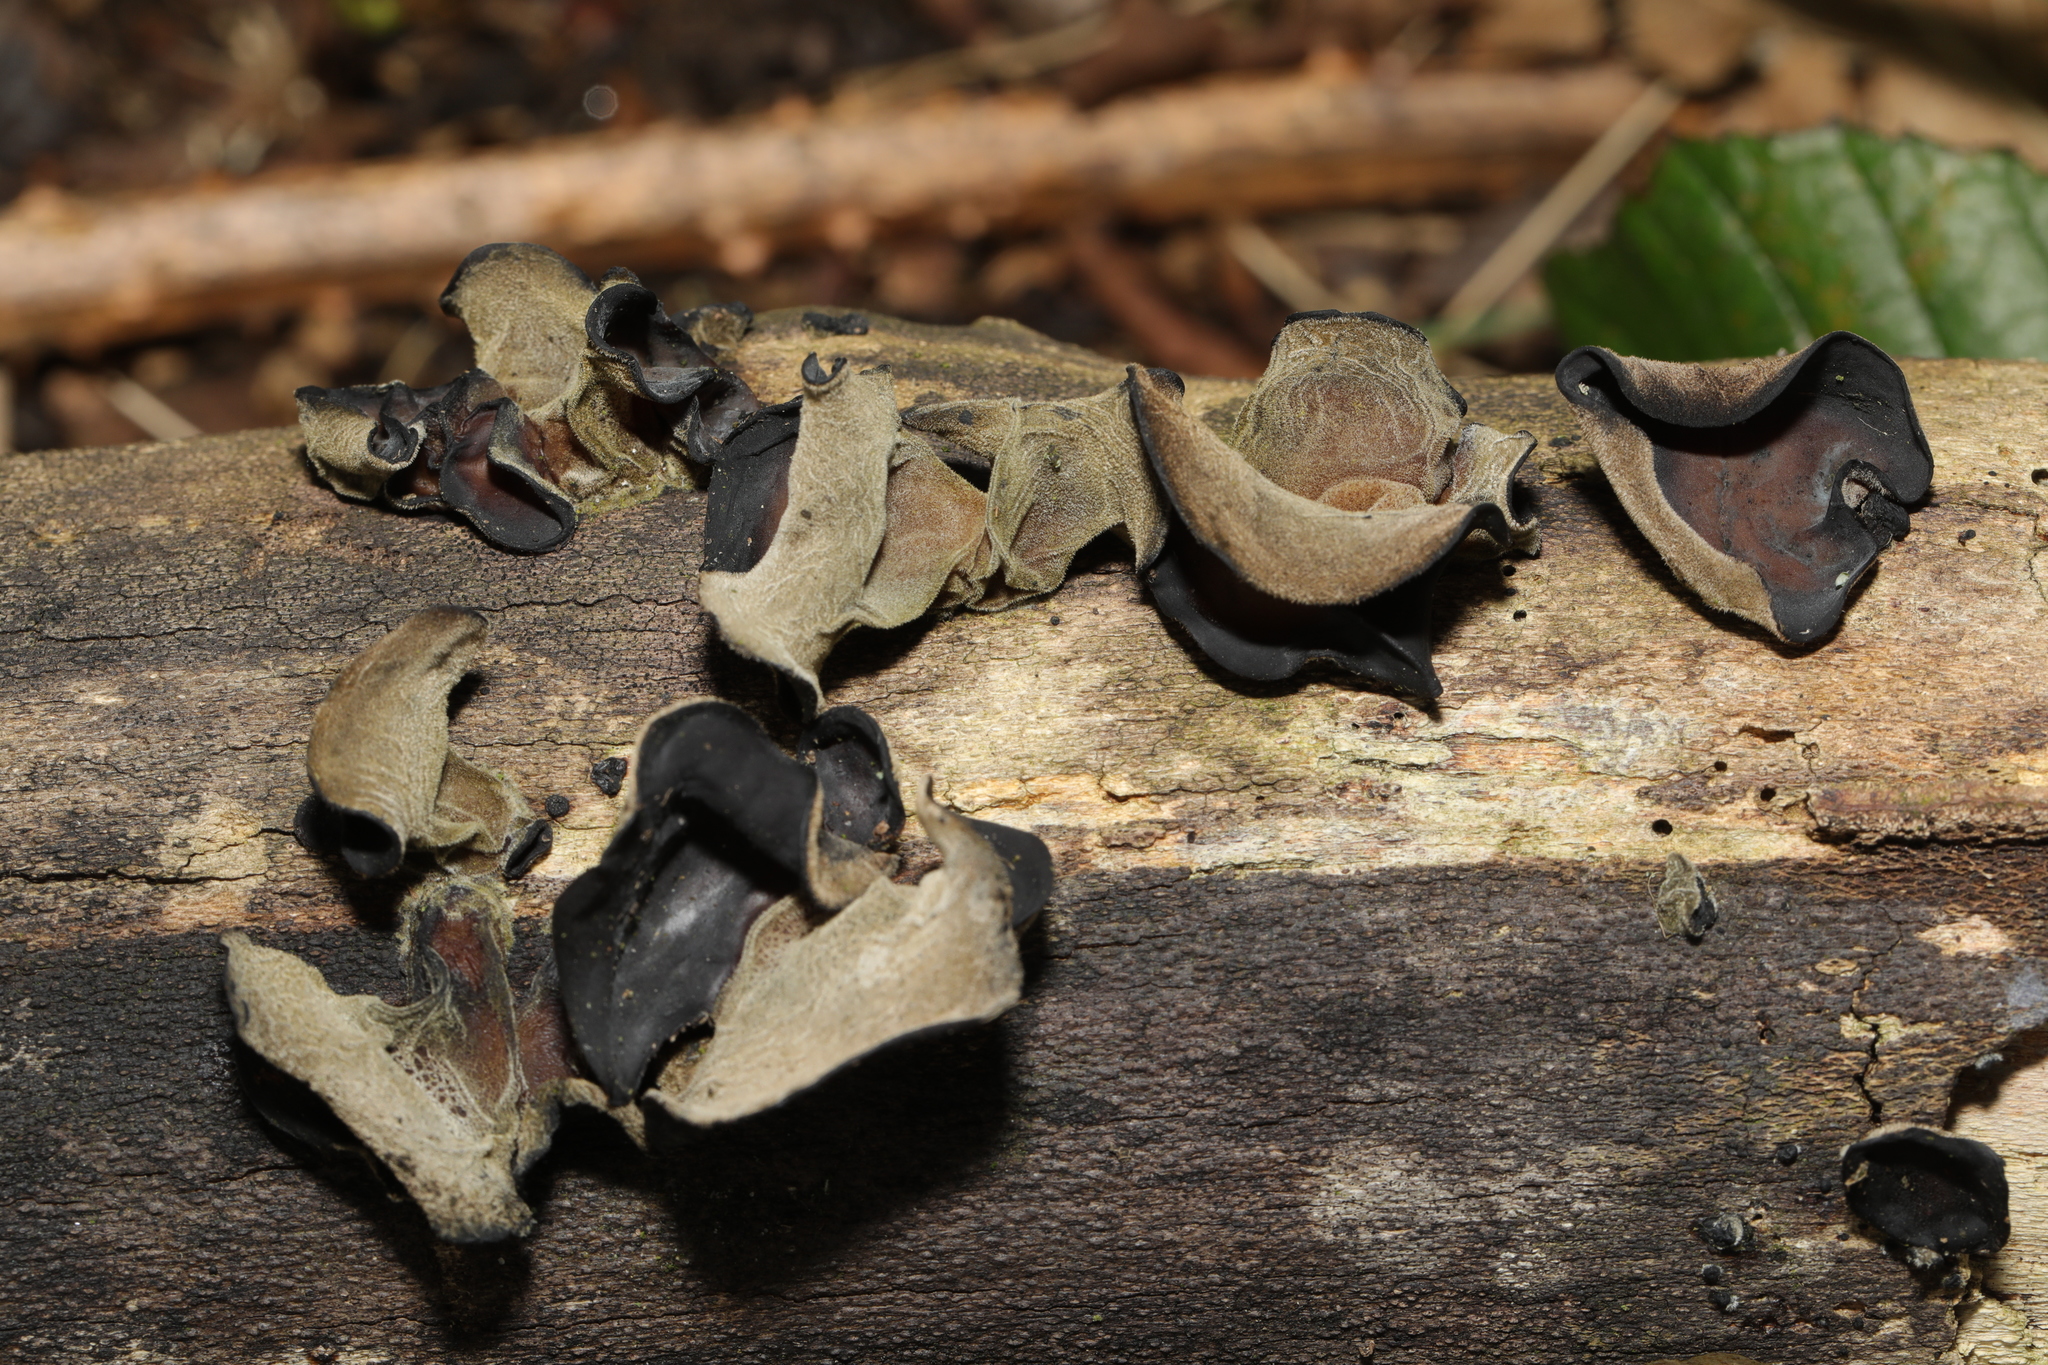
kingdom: Fungi
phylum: Basidiomycota
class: Agaricomycetes
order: Auriculariales
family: Auriculariaceae
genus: Auricularia
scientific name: Auricularia auricula-judae
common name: Jelly ear
